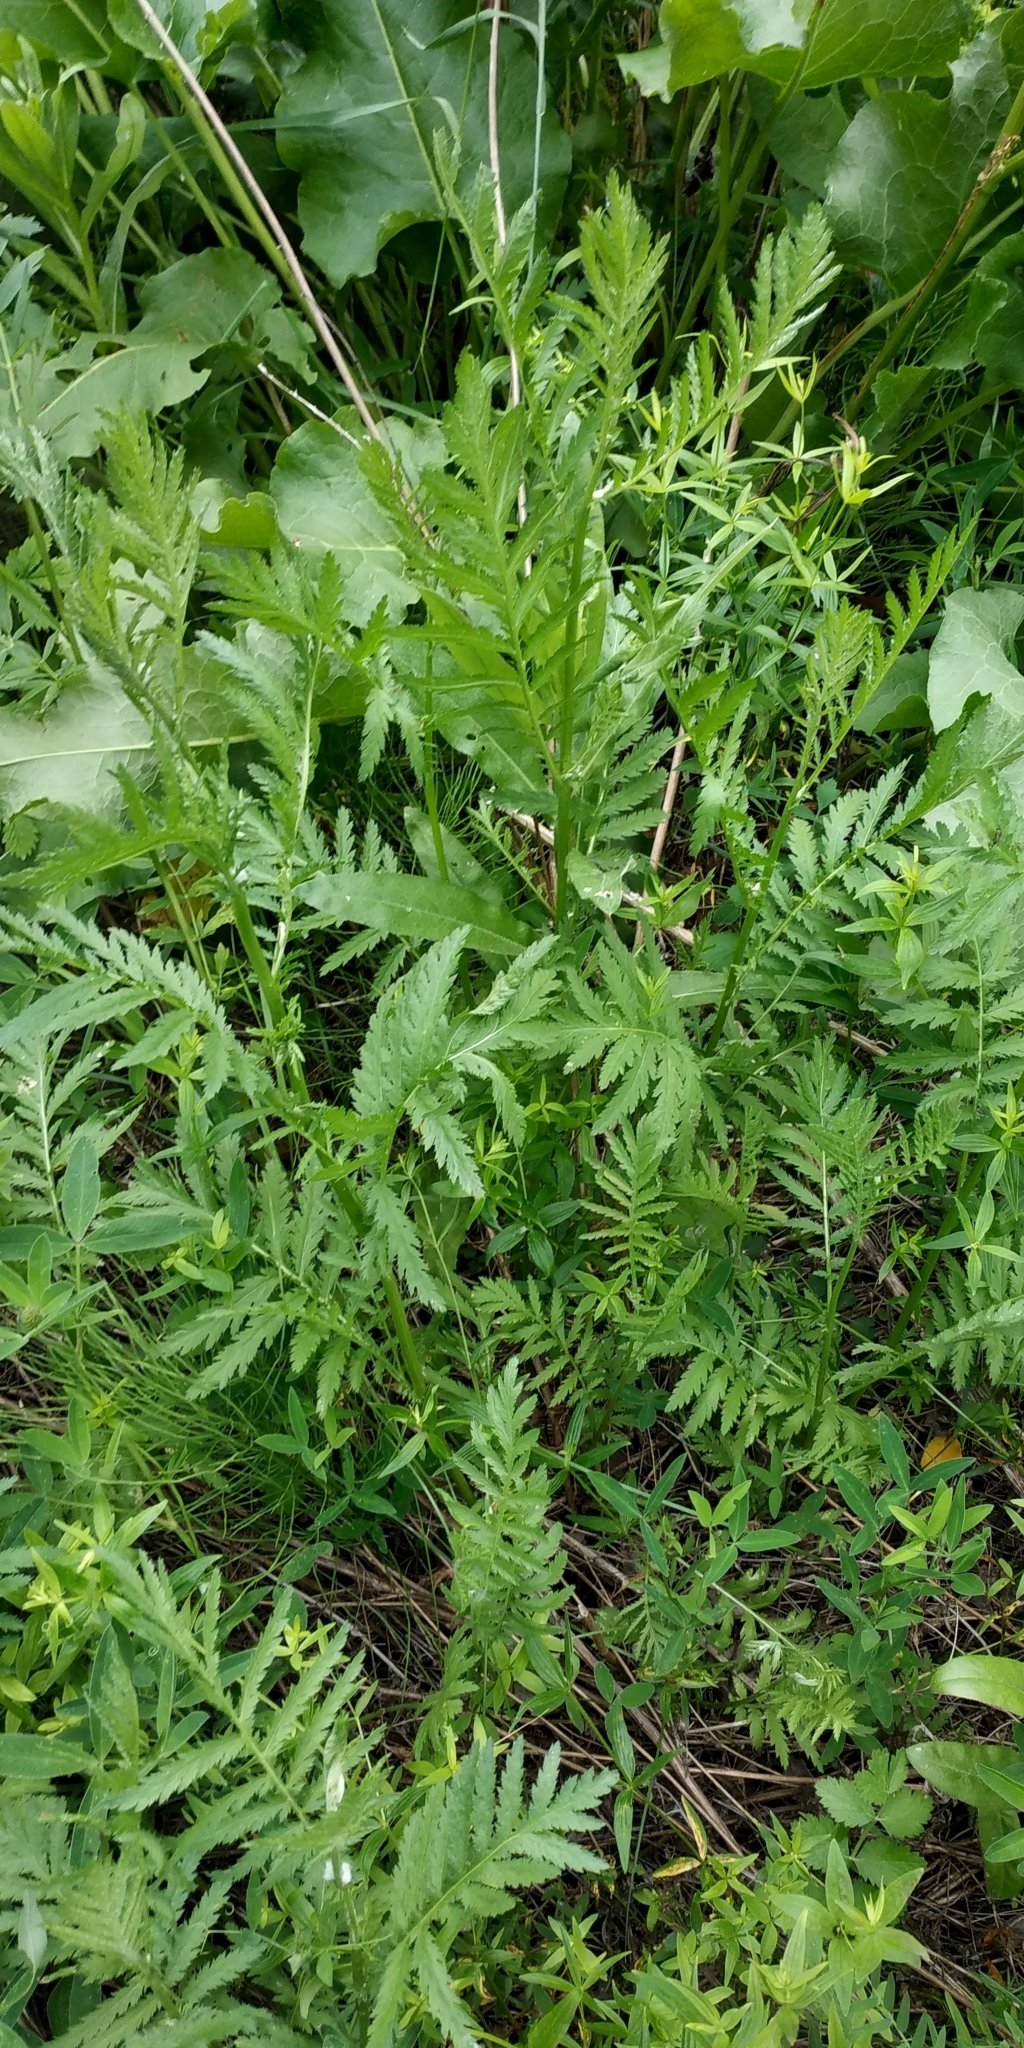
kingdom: Plantae
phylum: Tracheophyta
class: Magnoliopsida
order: Asterales
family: Asteraceae
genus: Tanacetum
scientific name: Tanacetum vulgare
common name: Common tansy
